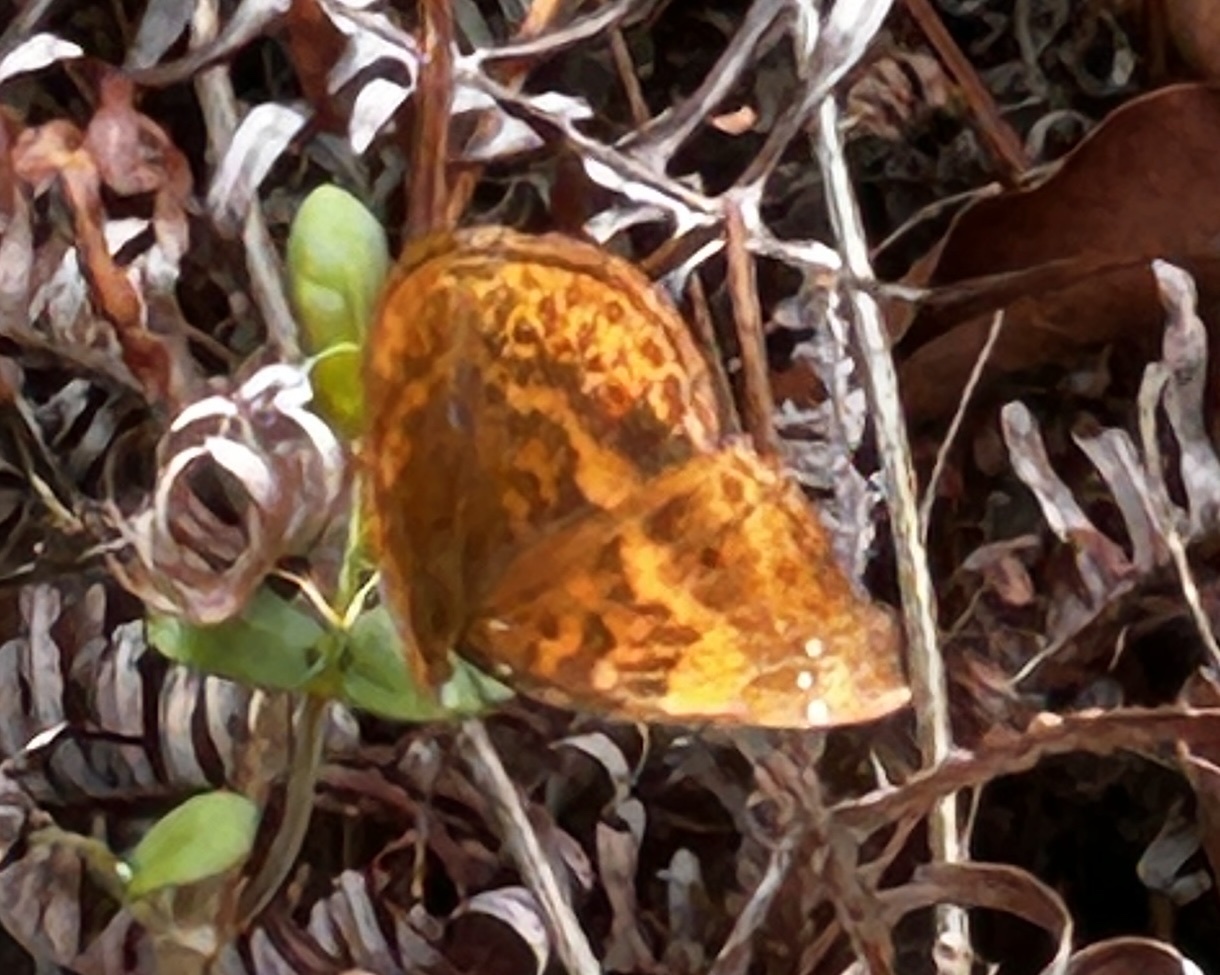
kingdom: Animalia
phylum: Arthropoda
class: Insecta
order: Lepidoptera
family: Nymphalidae
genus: Apatura
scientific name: Apatura Rohana spec
